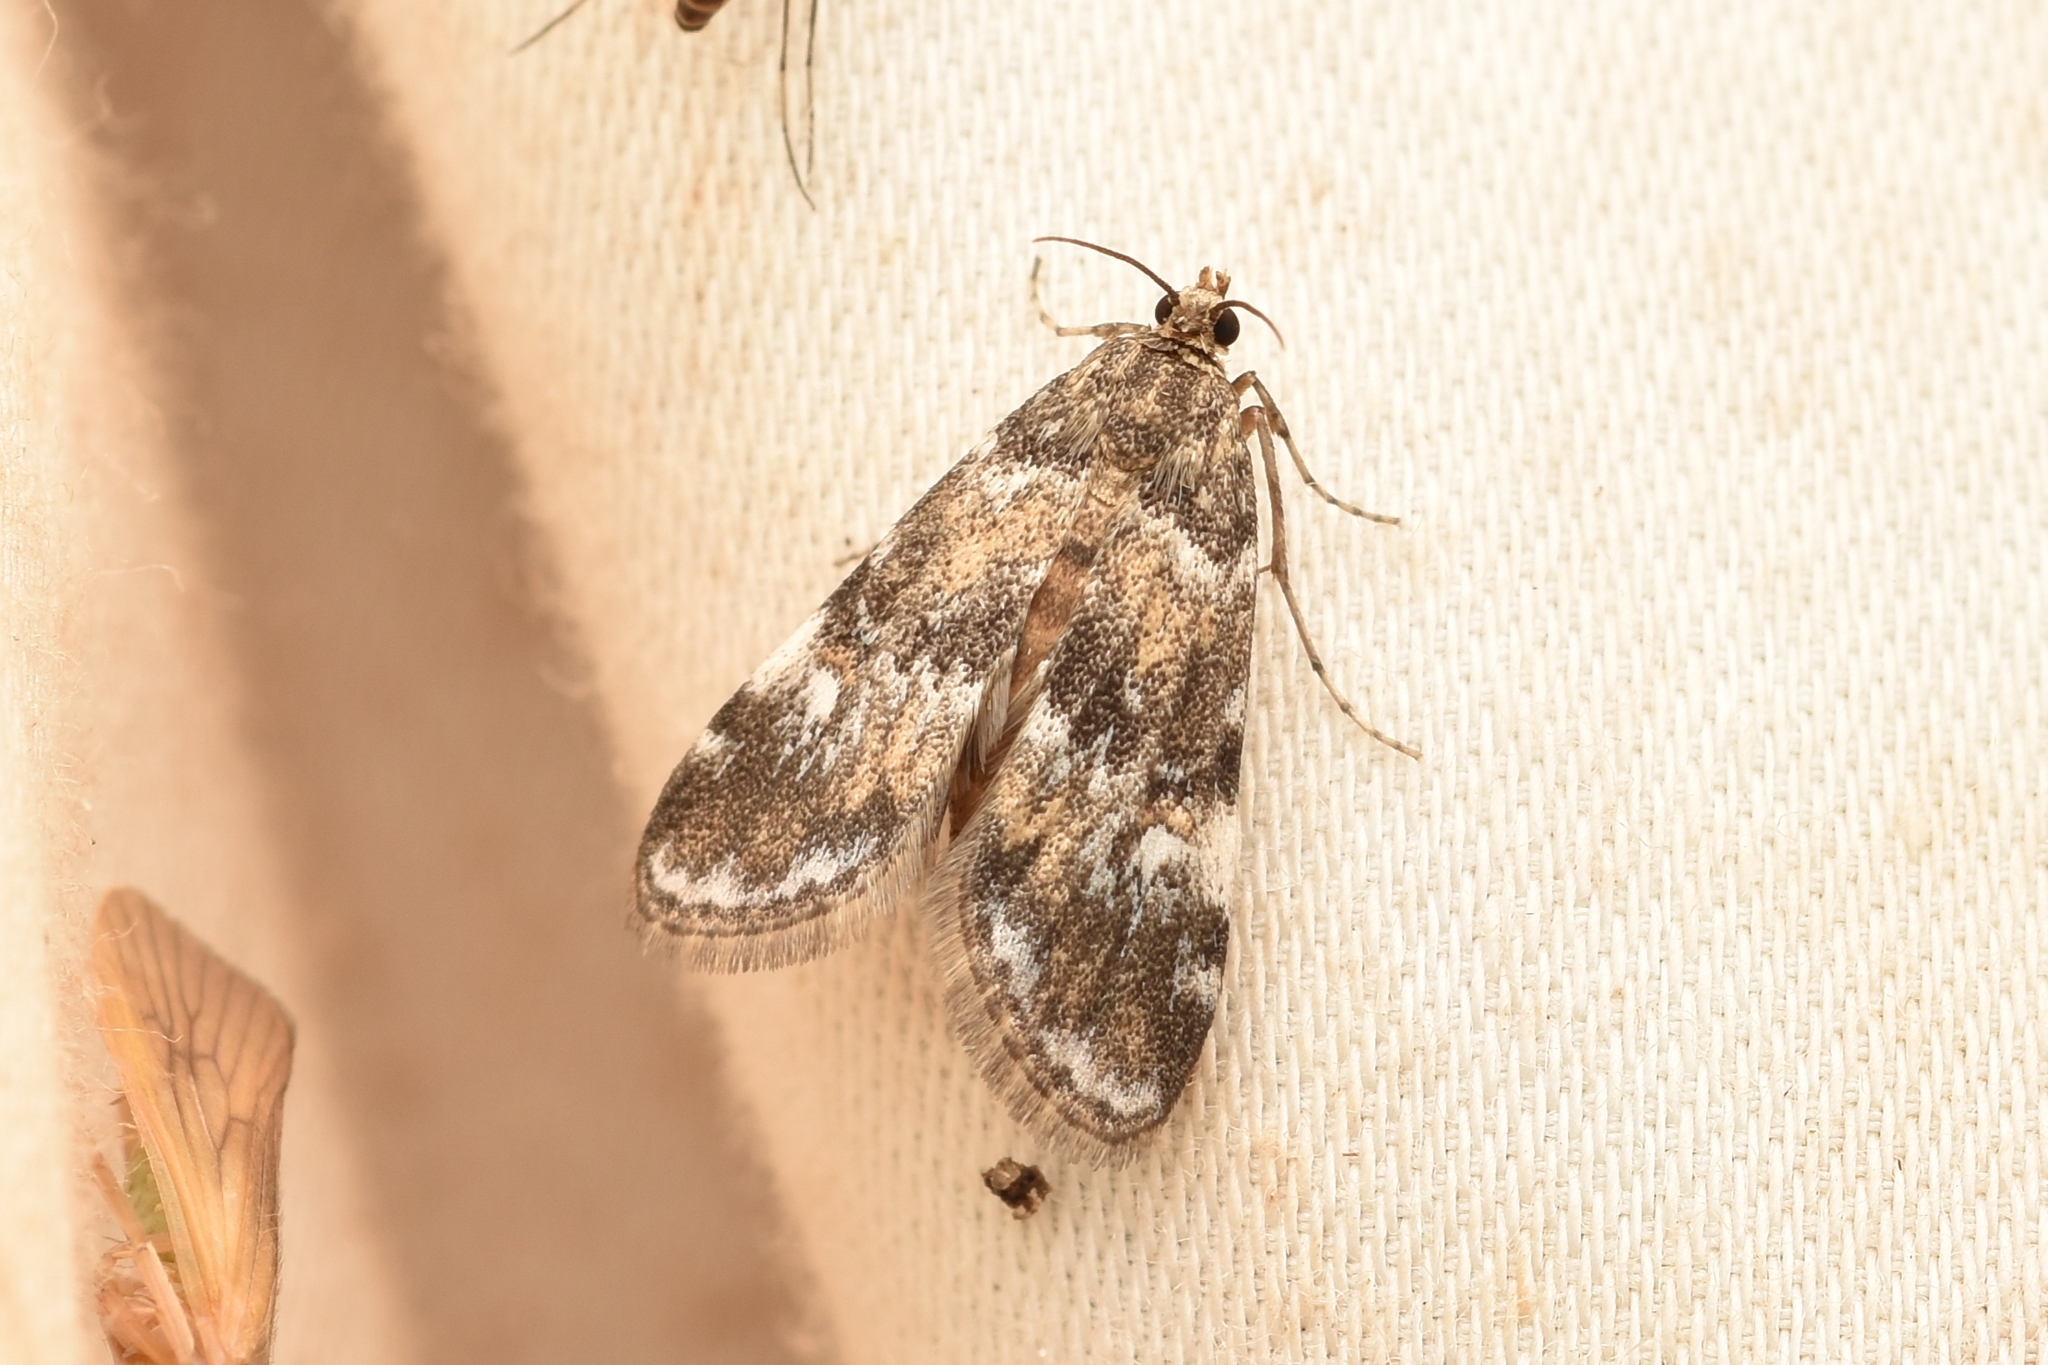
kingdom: Animalia
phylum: Arthropoda
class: Insecta
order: Lepidoptera
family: Crambidae
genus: Elophila
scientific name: Elophila obliteralis
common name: Waterlily leafcutter moth
